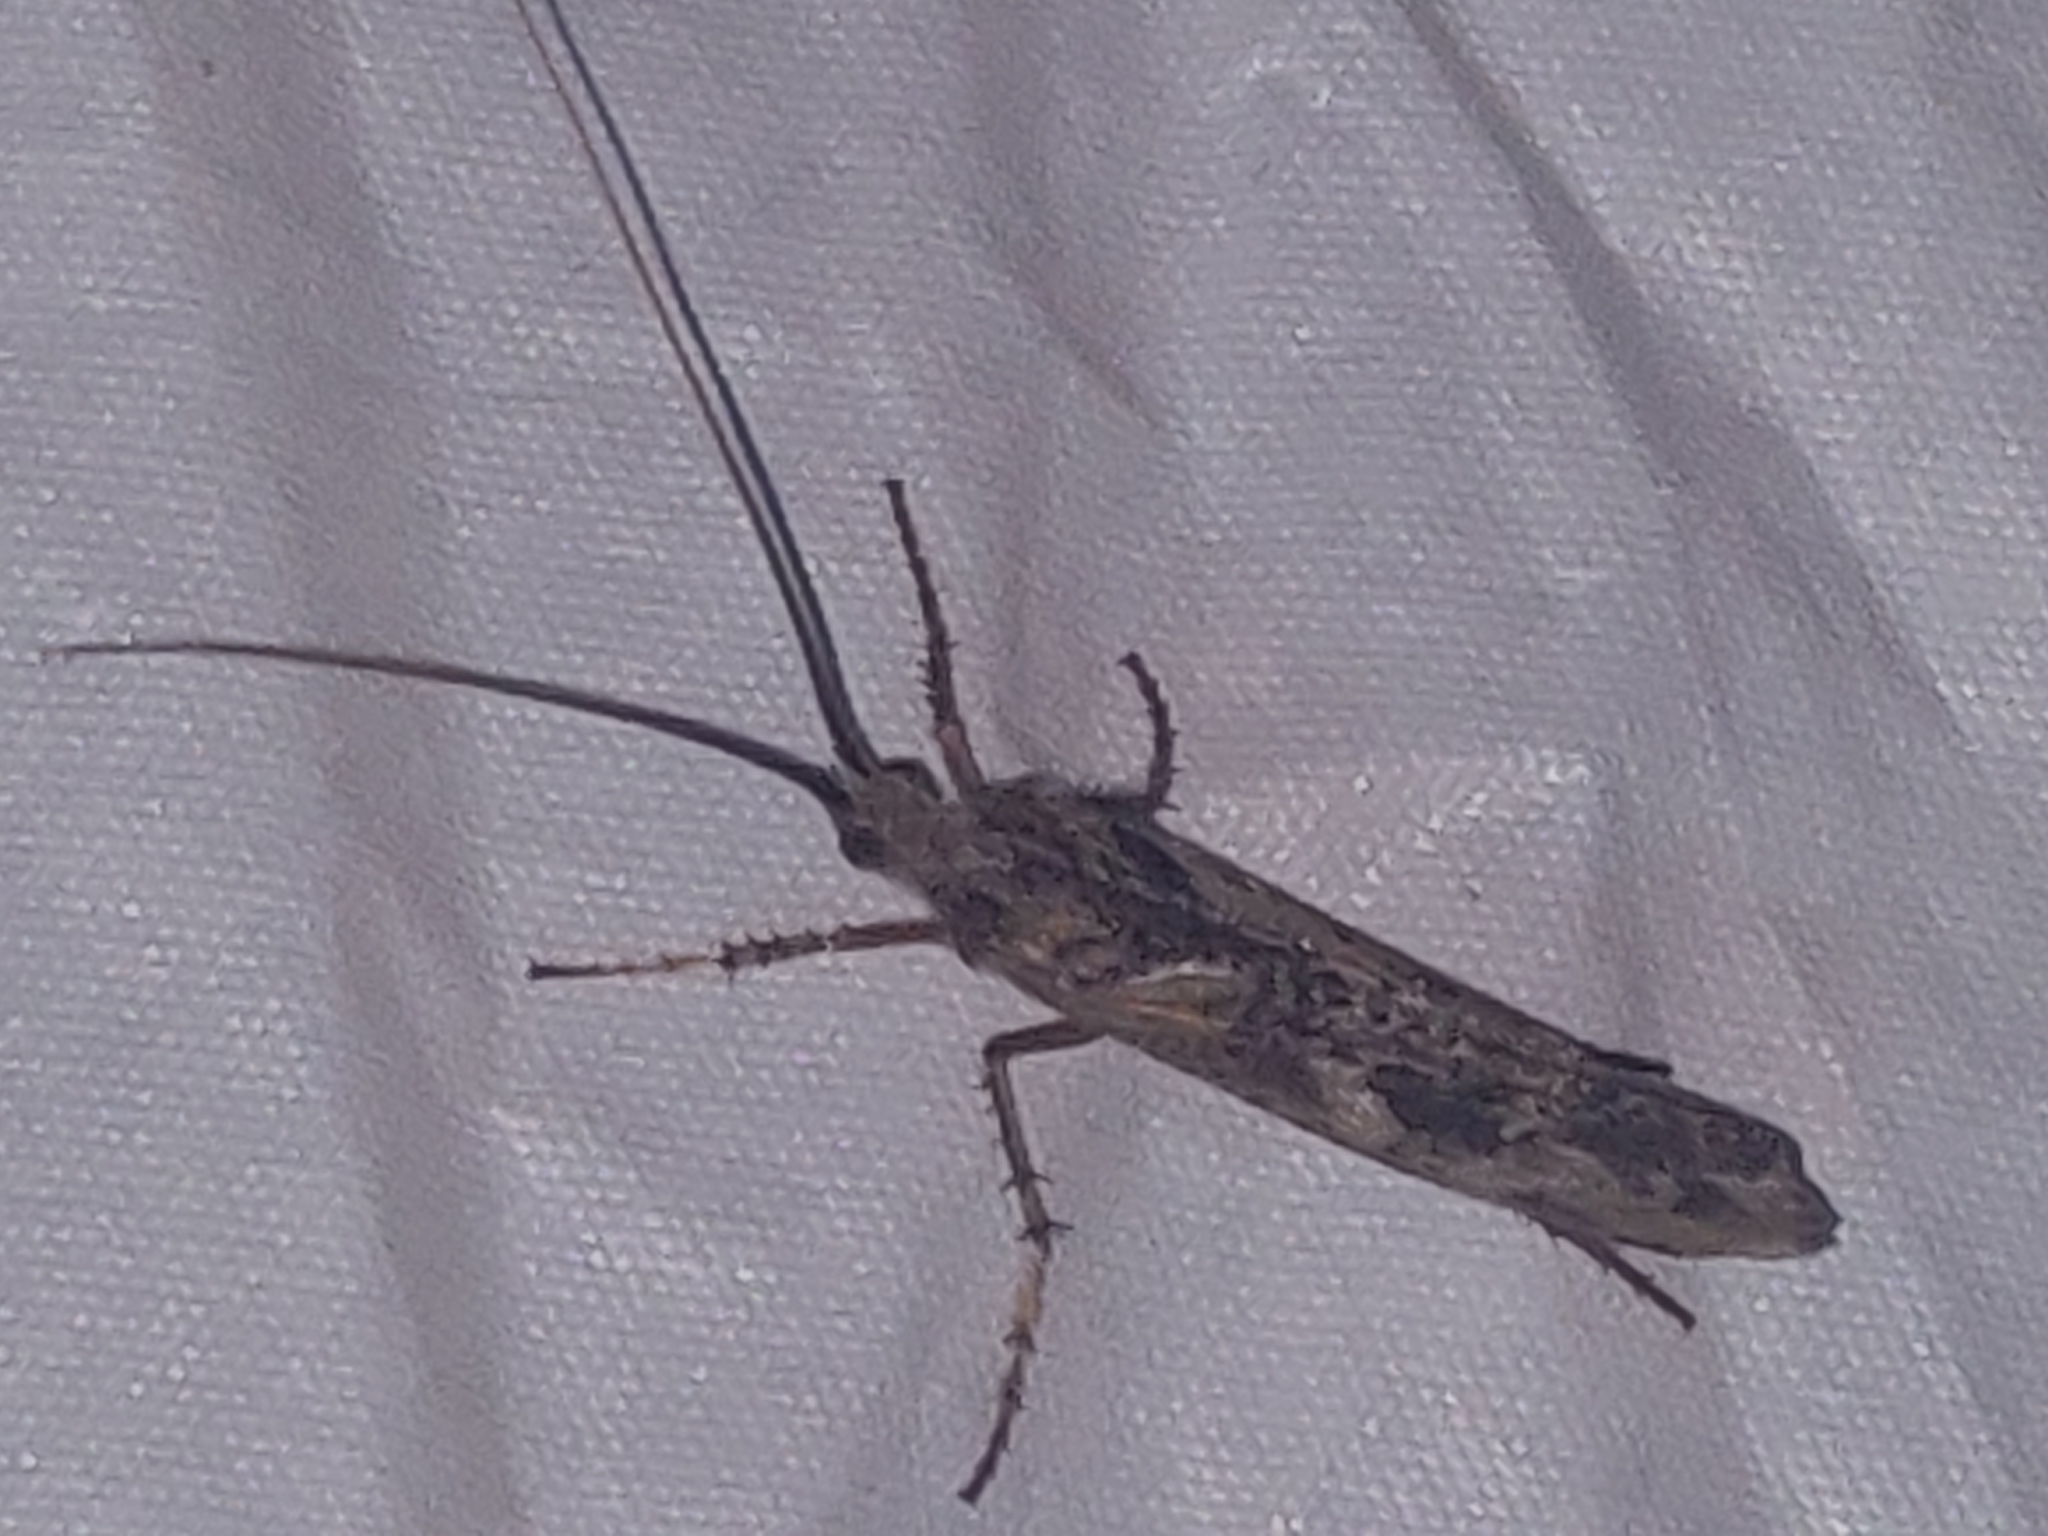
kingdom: Animalia
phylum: Arthropoda
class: Insecta
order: Trichoptera
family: Limnephilidae
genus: Glyphotaelius
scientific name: Glyphotaelius pellucidus
